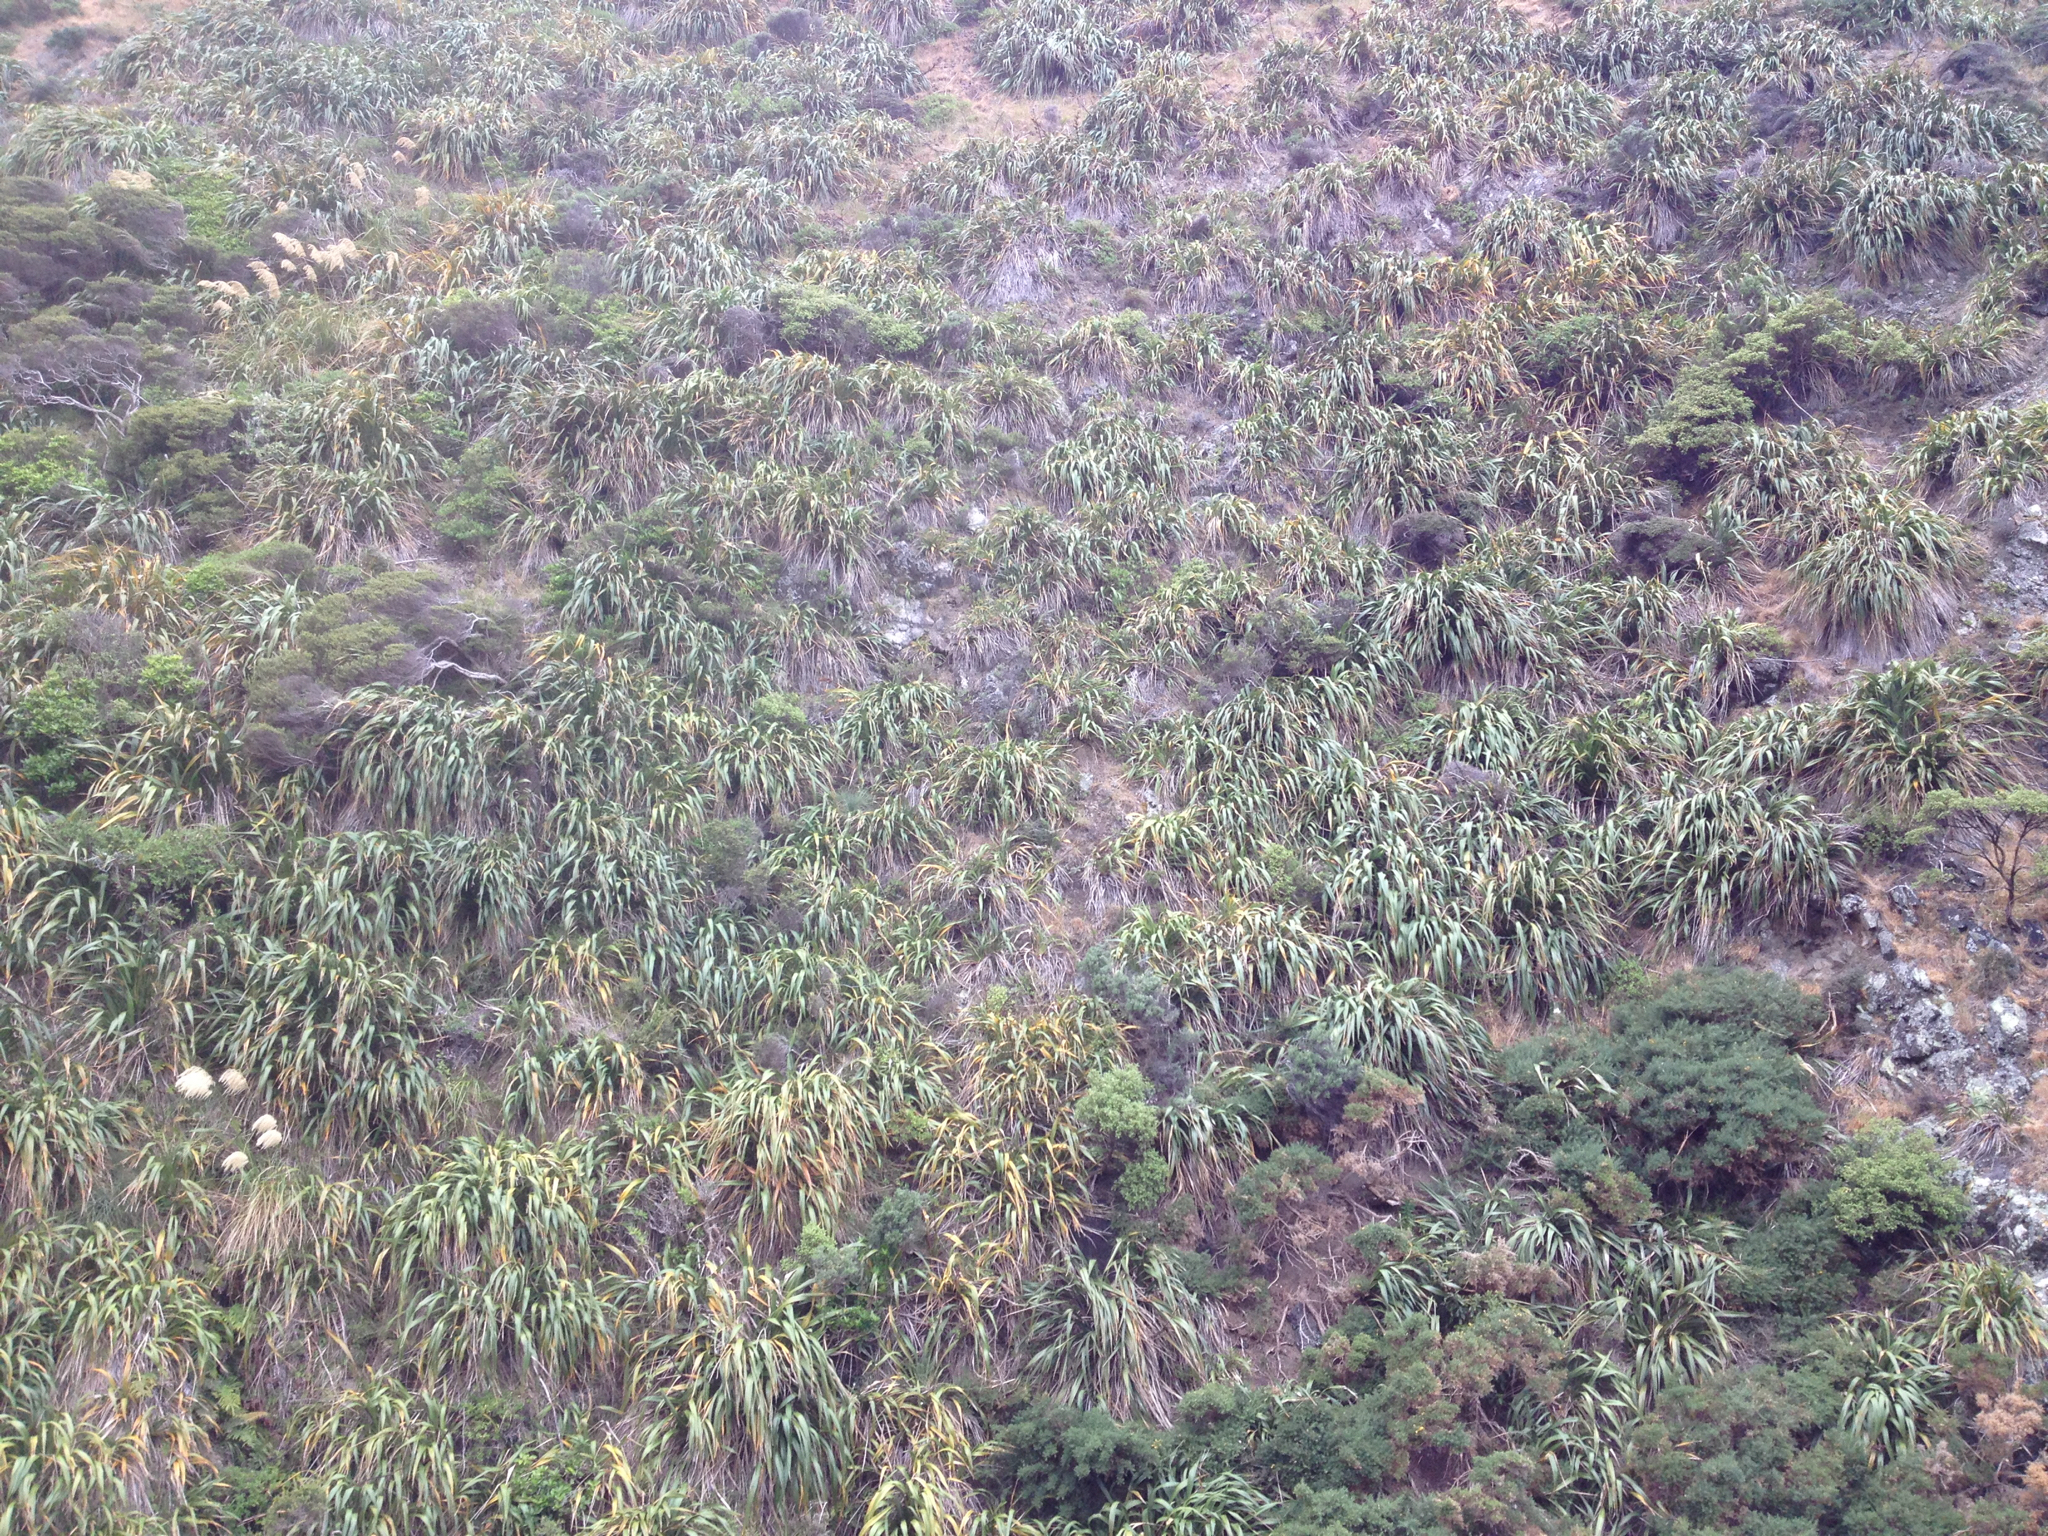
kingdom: Plantae
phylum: Tracheophyta
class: Liliopsida
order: Asparagales
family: Asphodelaceae
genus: Phormium
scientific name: Phormium colensoi
